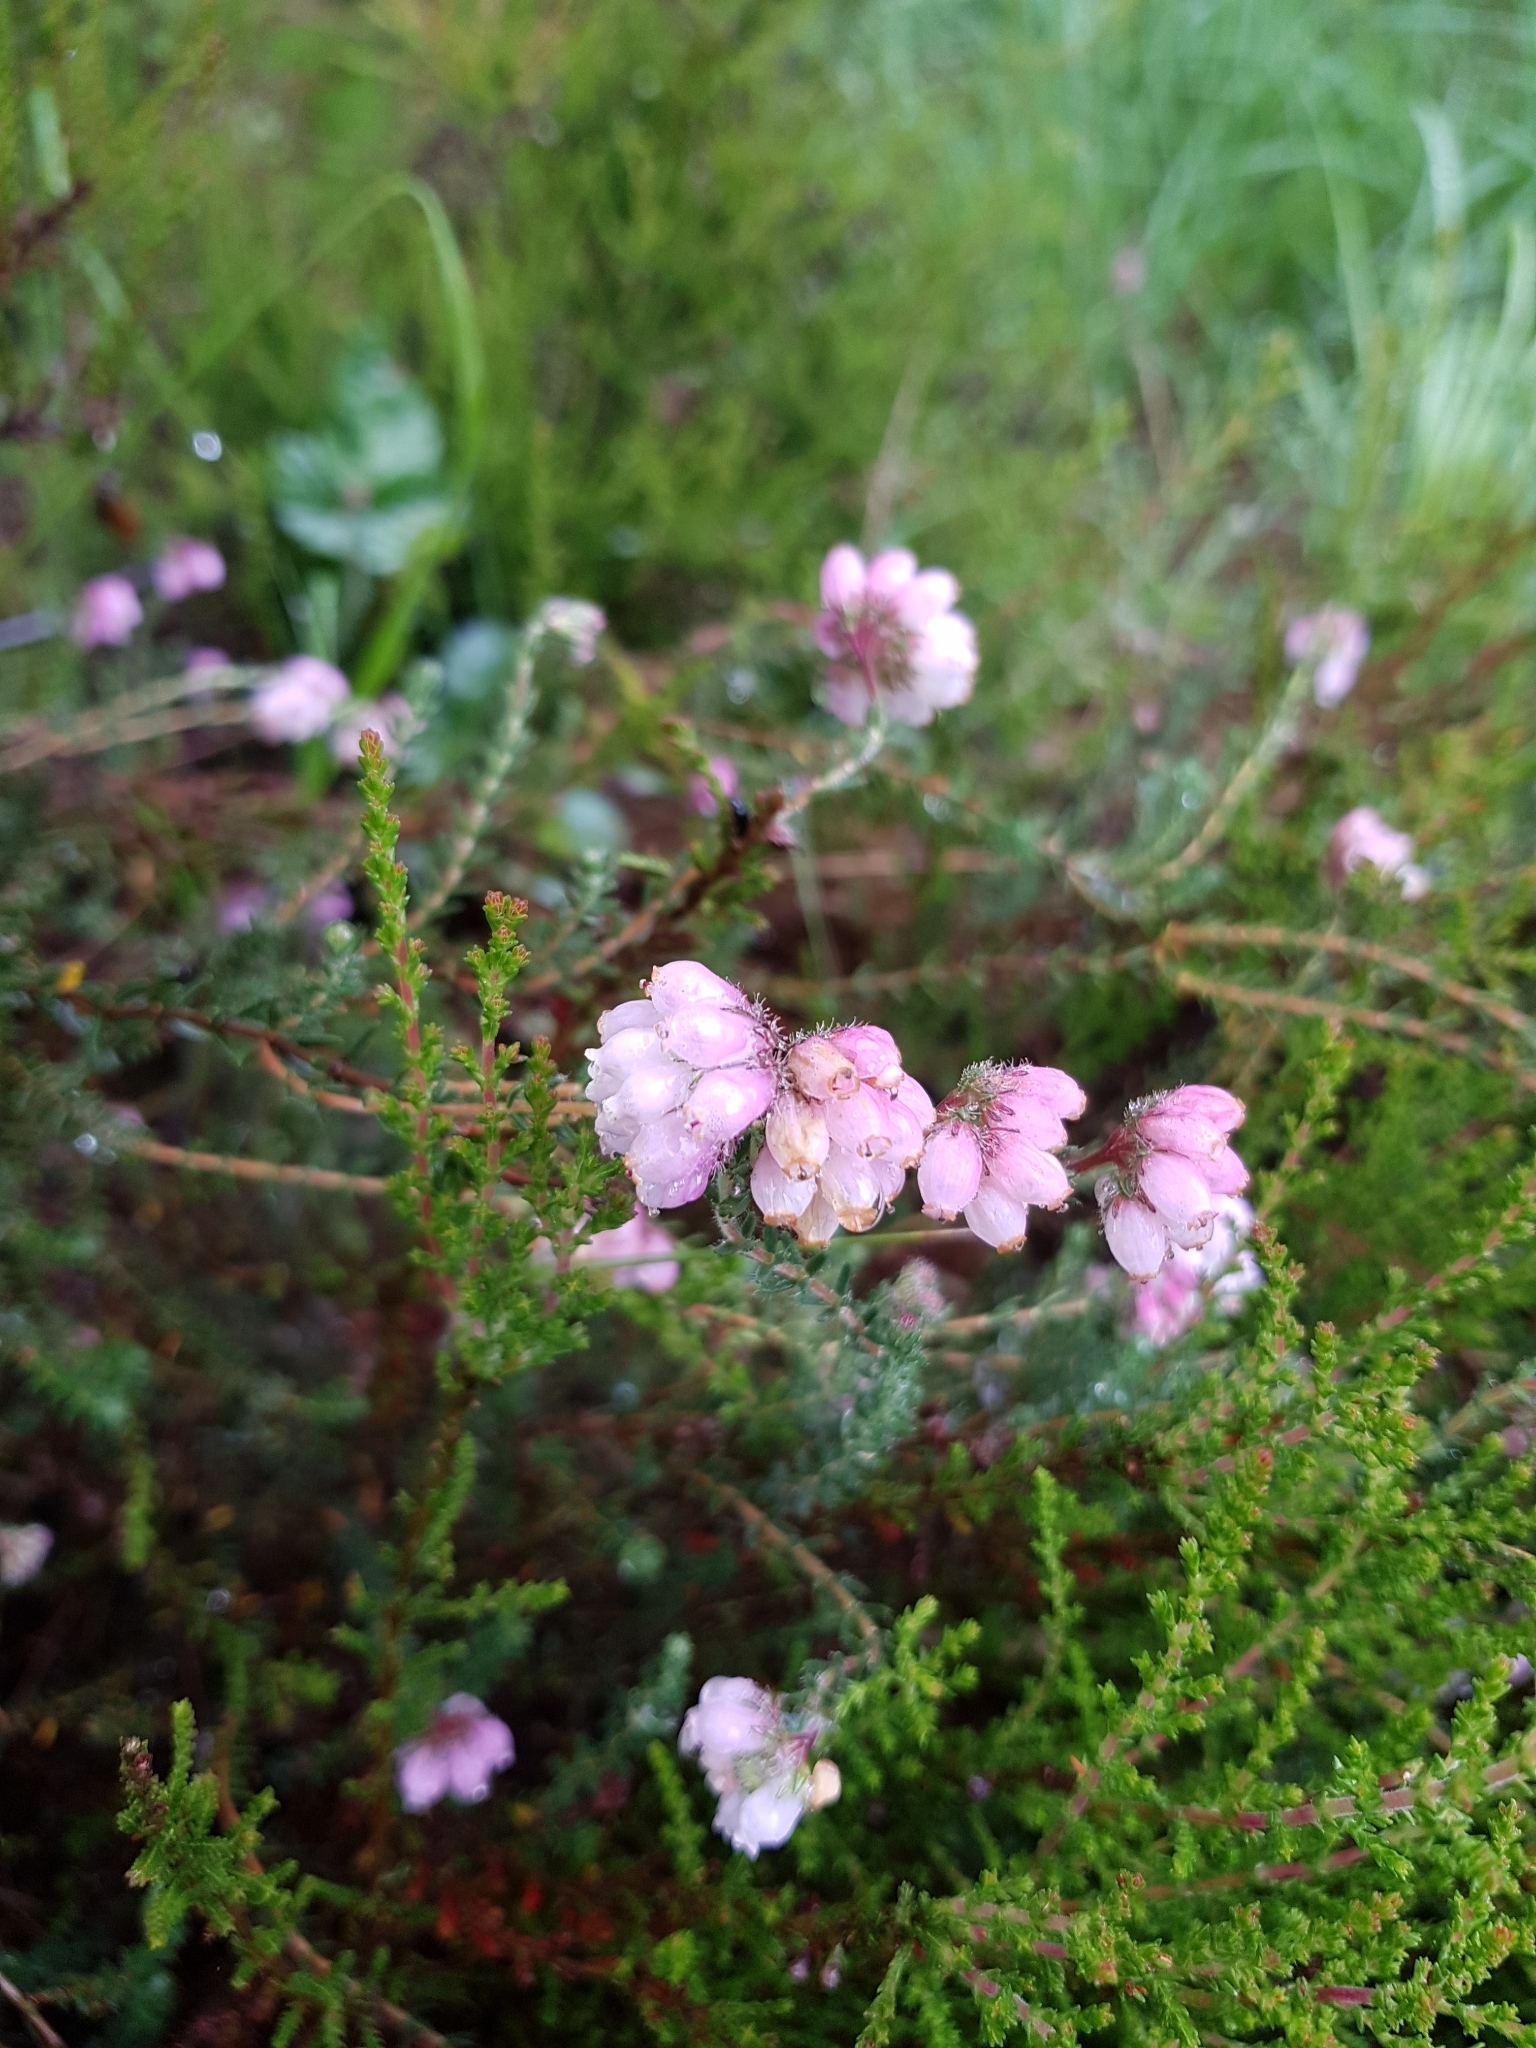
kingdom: Plantae
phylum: Tracheophyta
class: Magnoliopsida
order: Ericales
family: Ericaceae
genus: Erica
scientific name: Erica tetralix
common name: Cross-leaved heath
